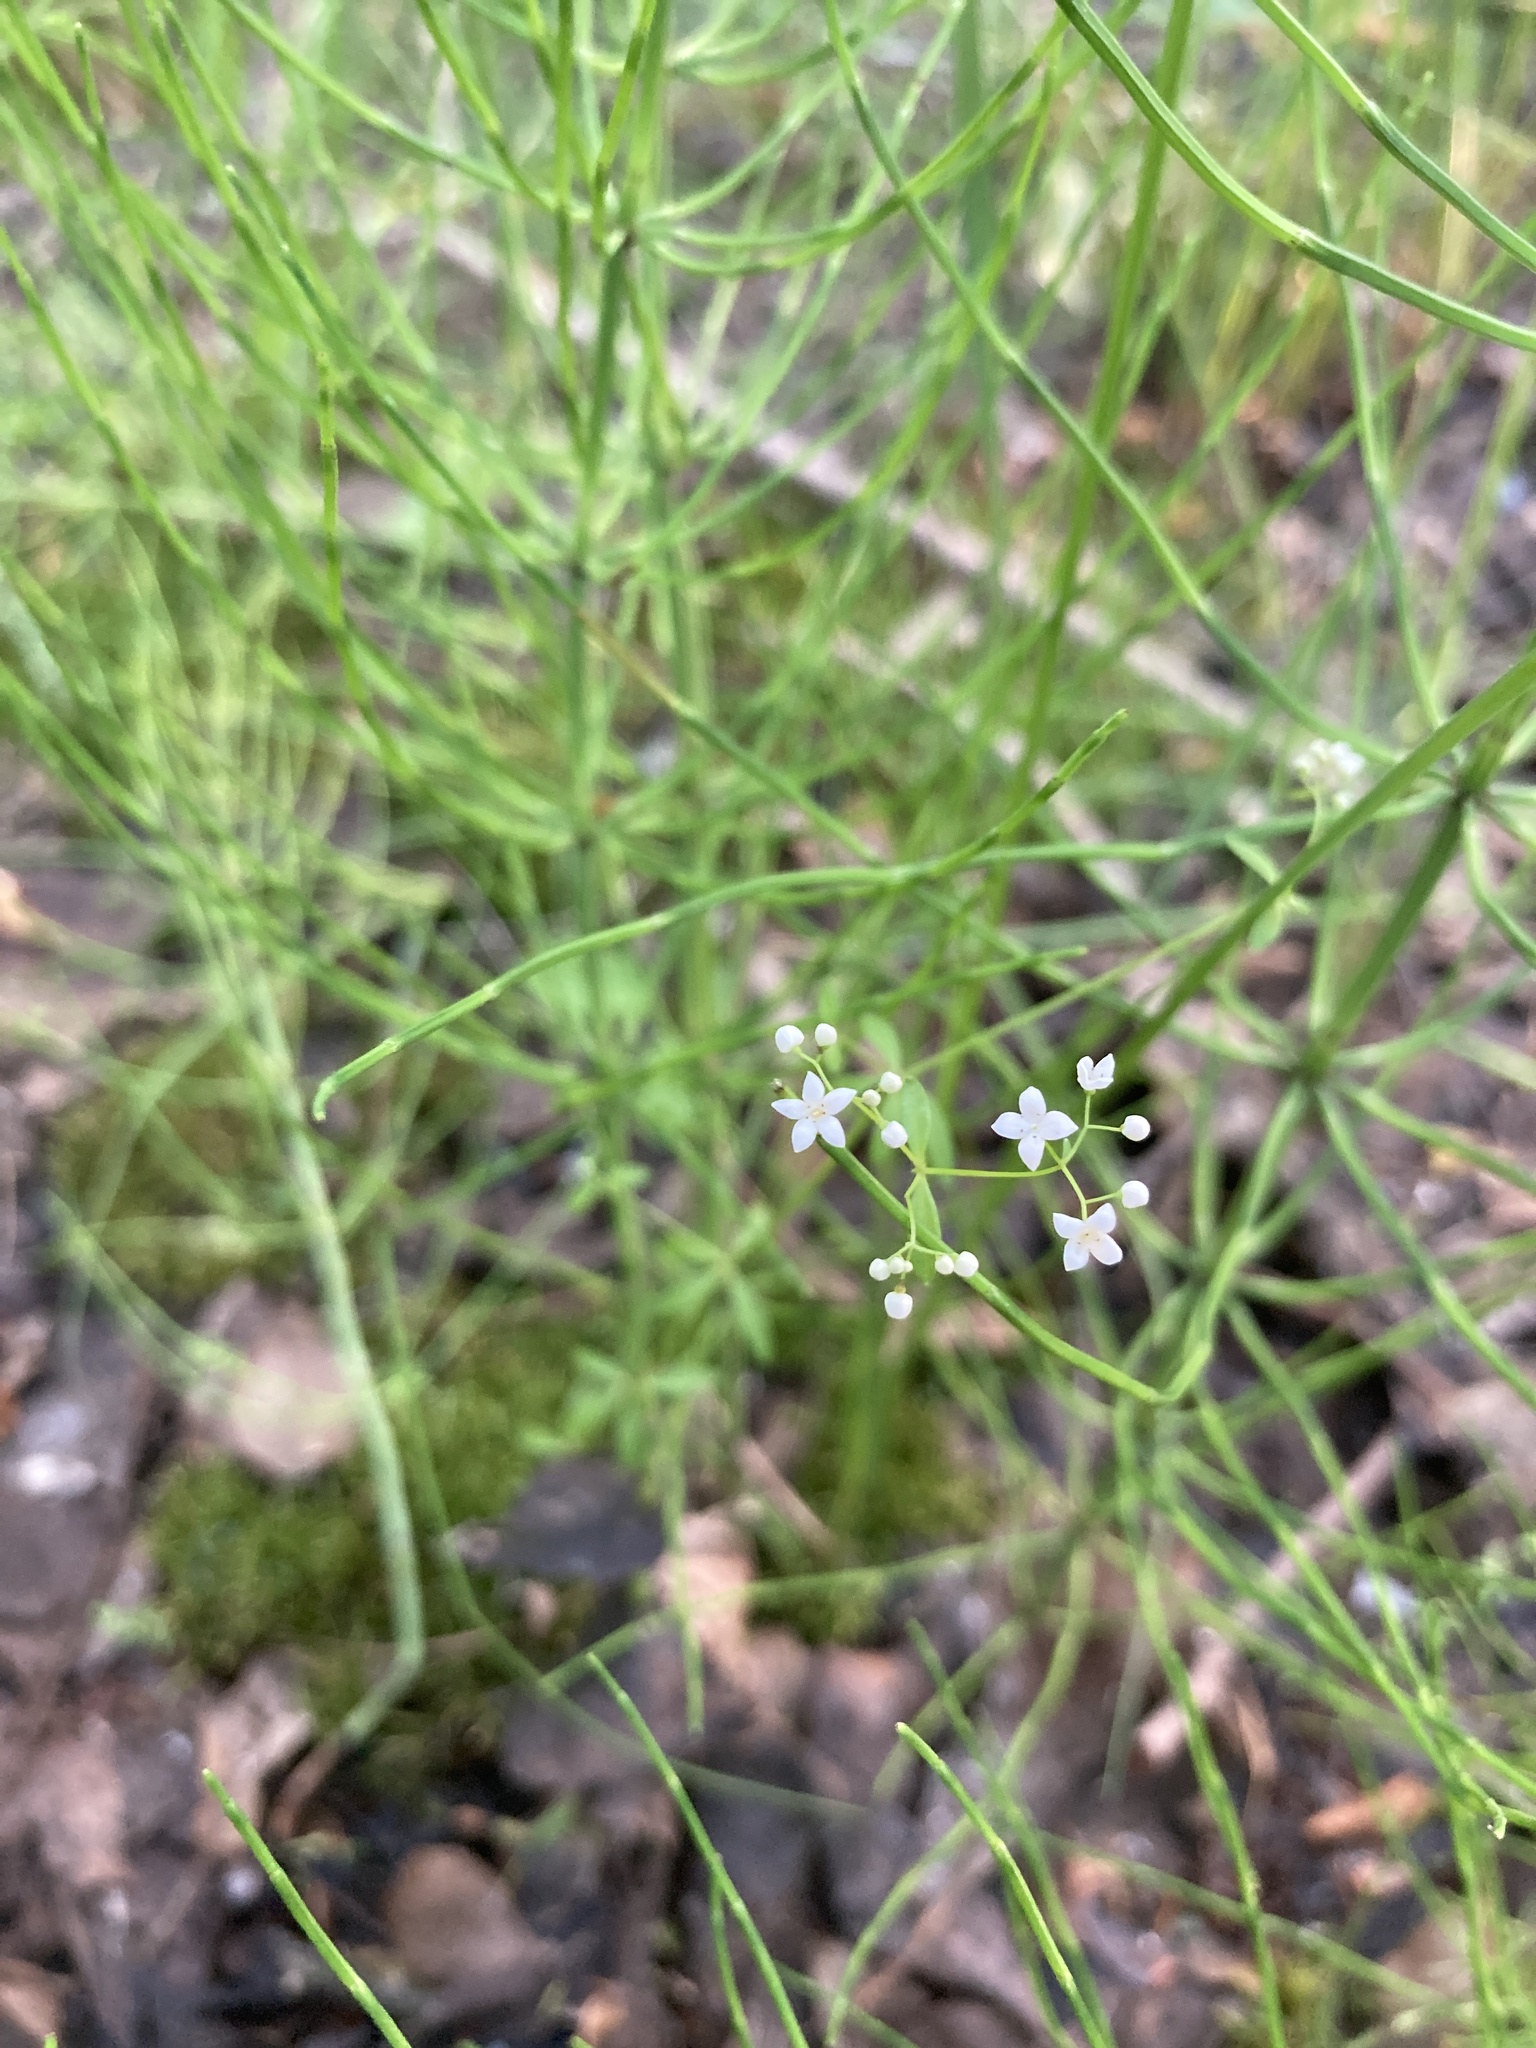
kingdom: Plantae
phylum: Tracheophyta
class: Magnoliopsida
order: Gentianales
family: Rubiaceae
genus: Galium
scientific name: Galium palustre
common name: Common marsh-bedstraw
